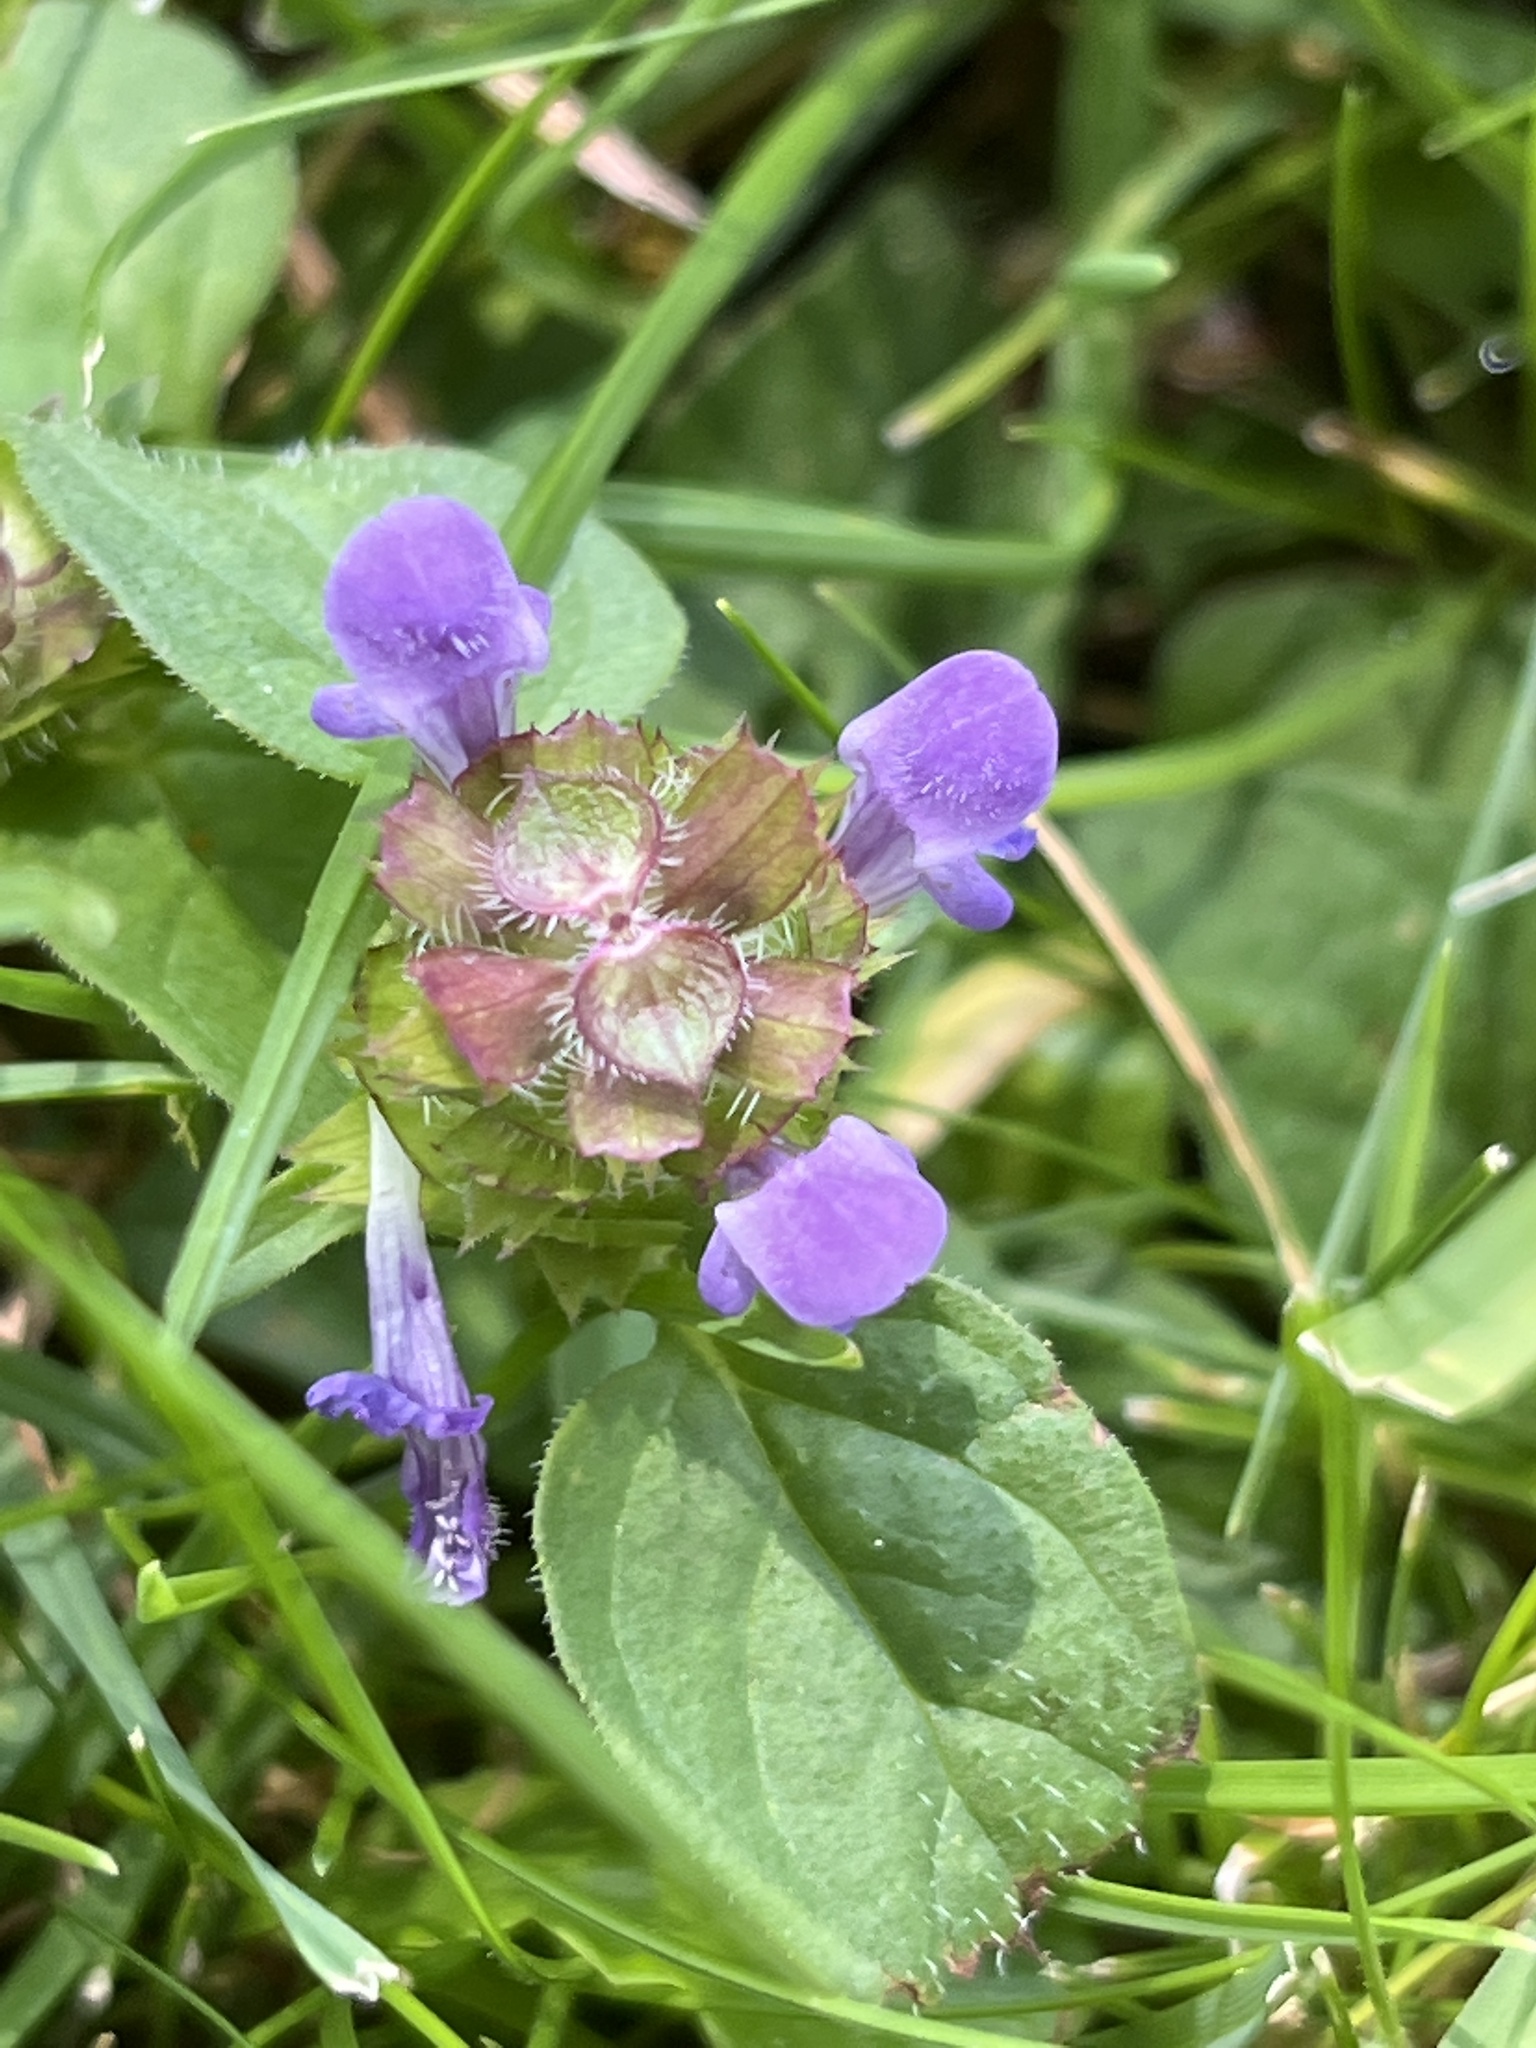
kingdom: Plantae
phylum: Tracheophyta
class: Magnoliopsida
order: Lamiales
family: Lamiaceae
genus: Prunella
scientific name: Prunella vulgaris
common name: Heal-all
